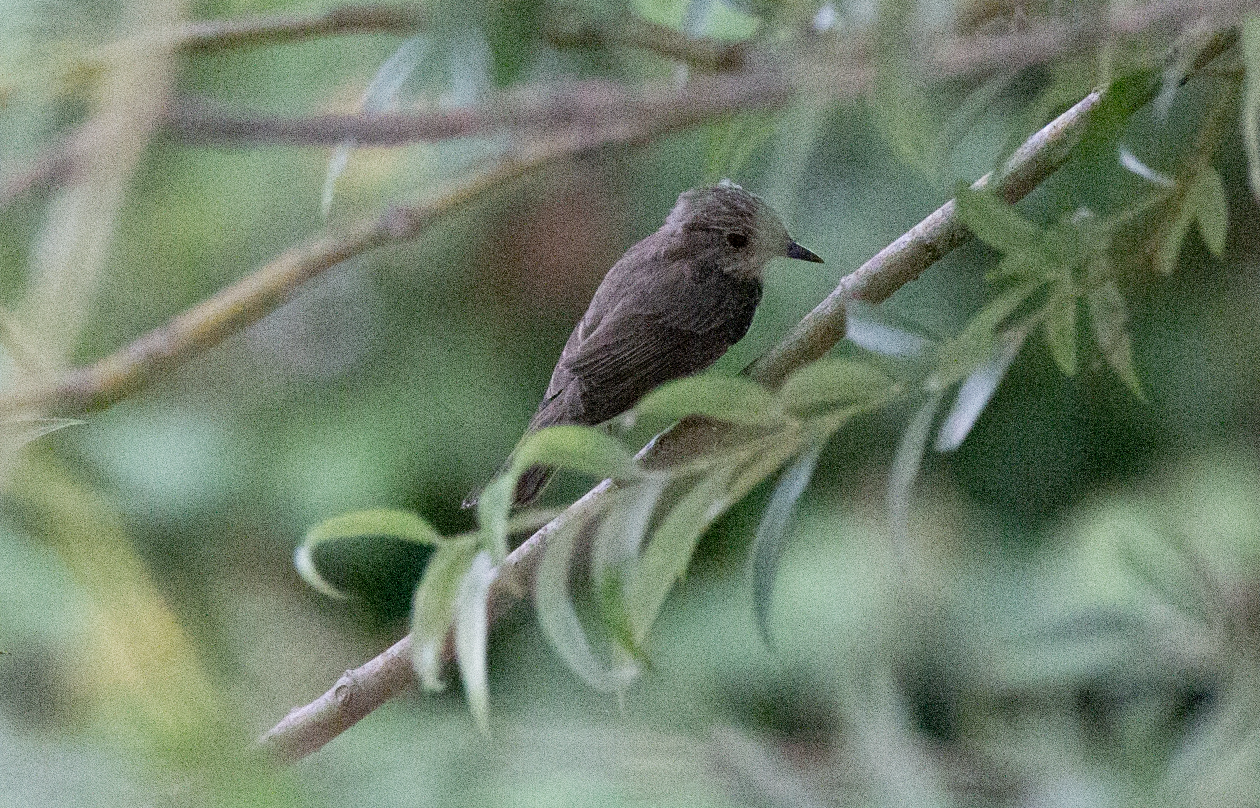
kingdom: Animalia
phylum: Chordata
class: Aves
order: Passeriformes
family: Muscicapidae
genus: Muscicapa
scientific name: Muscicapa striata
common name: Spotted flycatcher
